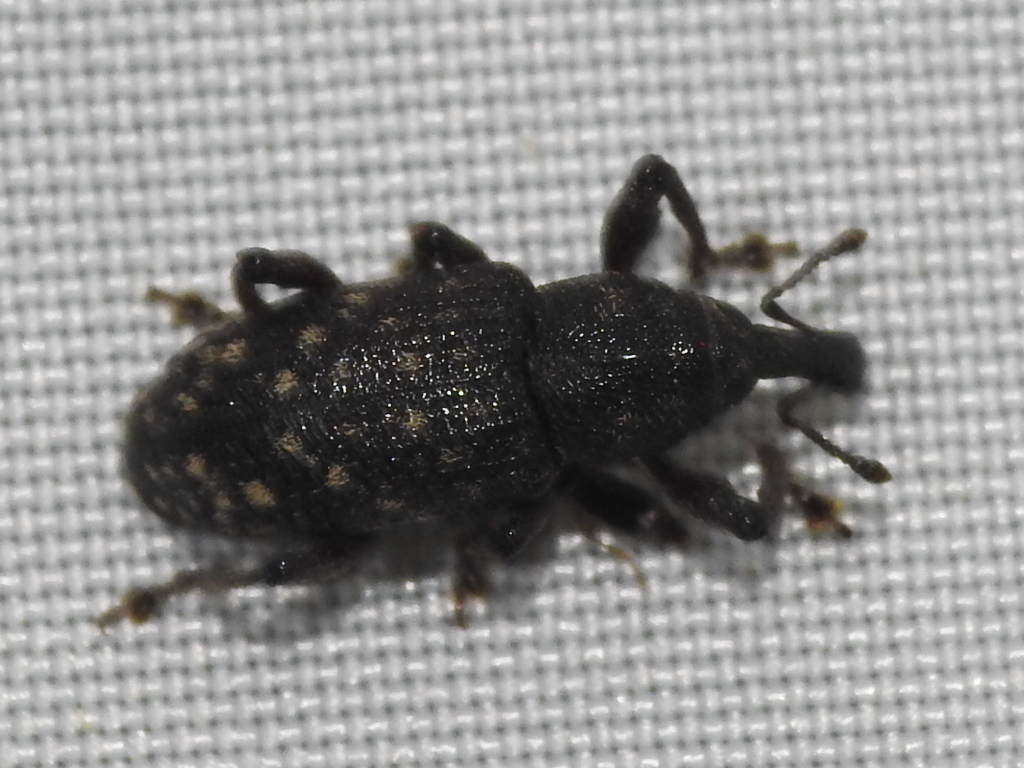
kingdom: Animalia
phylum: Arthropoda
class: Insecta
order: Coleoptera
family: Curculionidae
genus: Pachylobius
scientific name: Pachylobius picivorus
